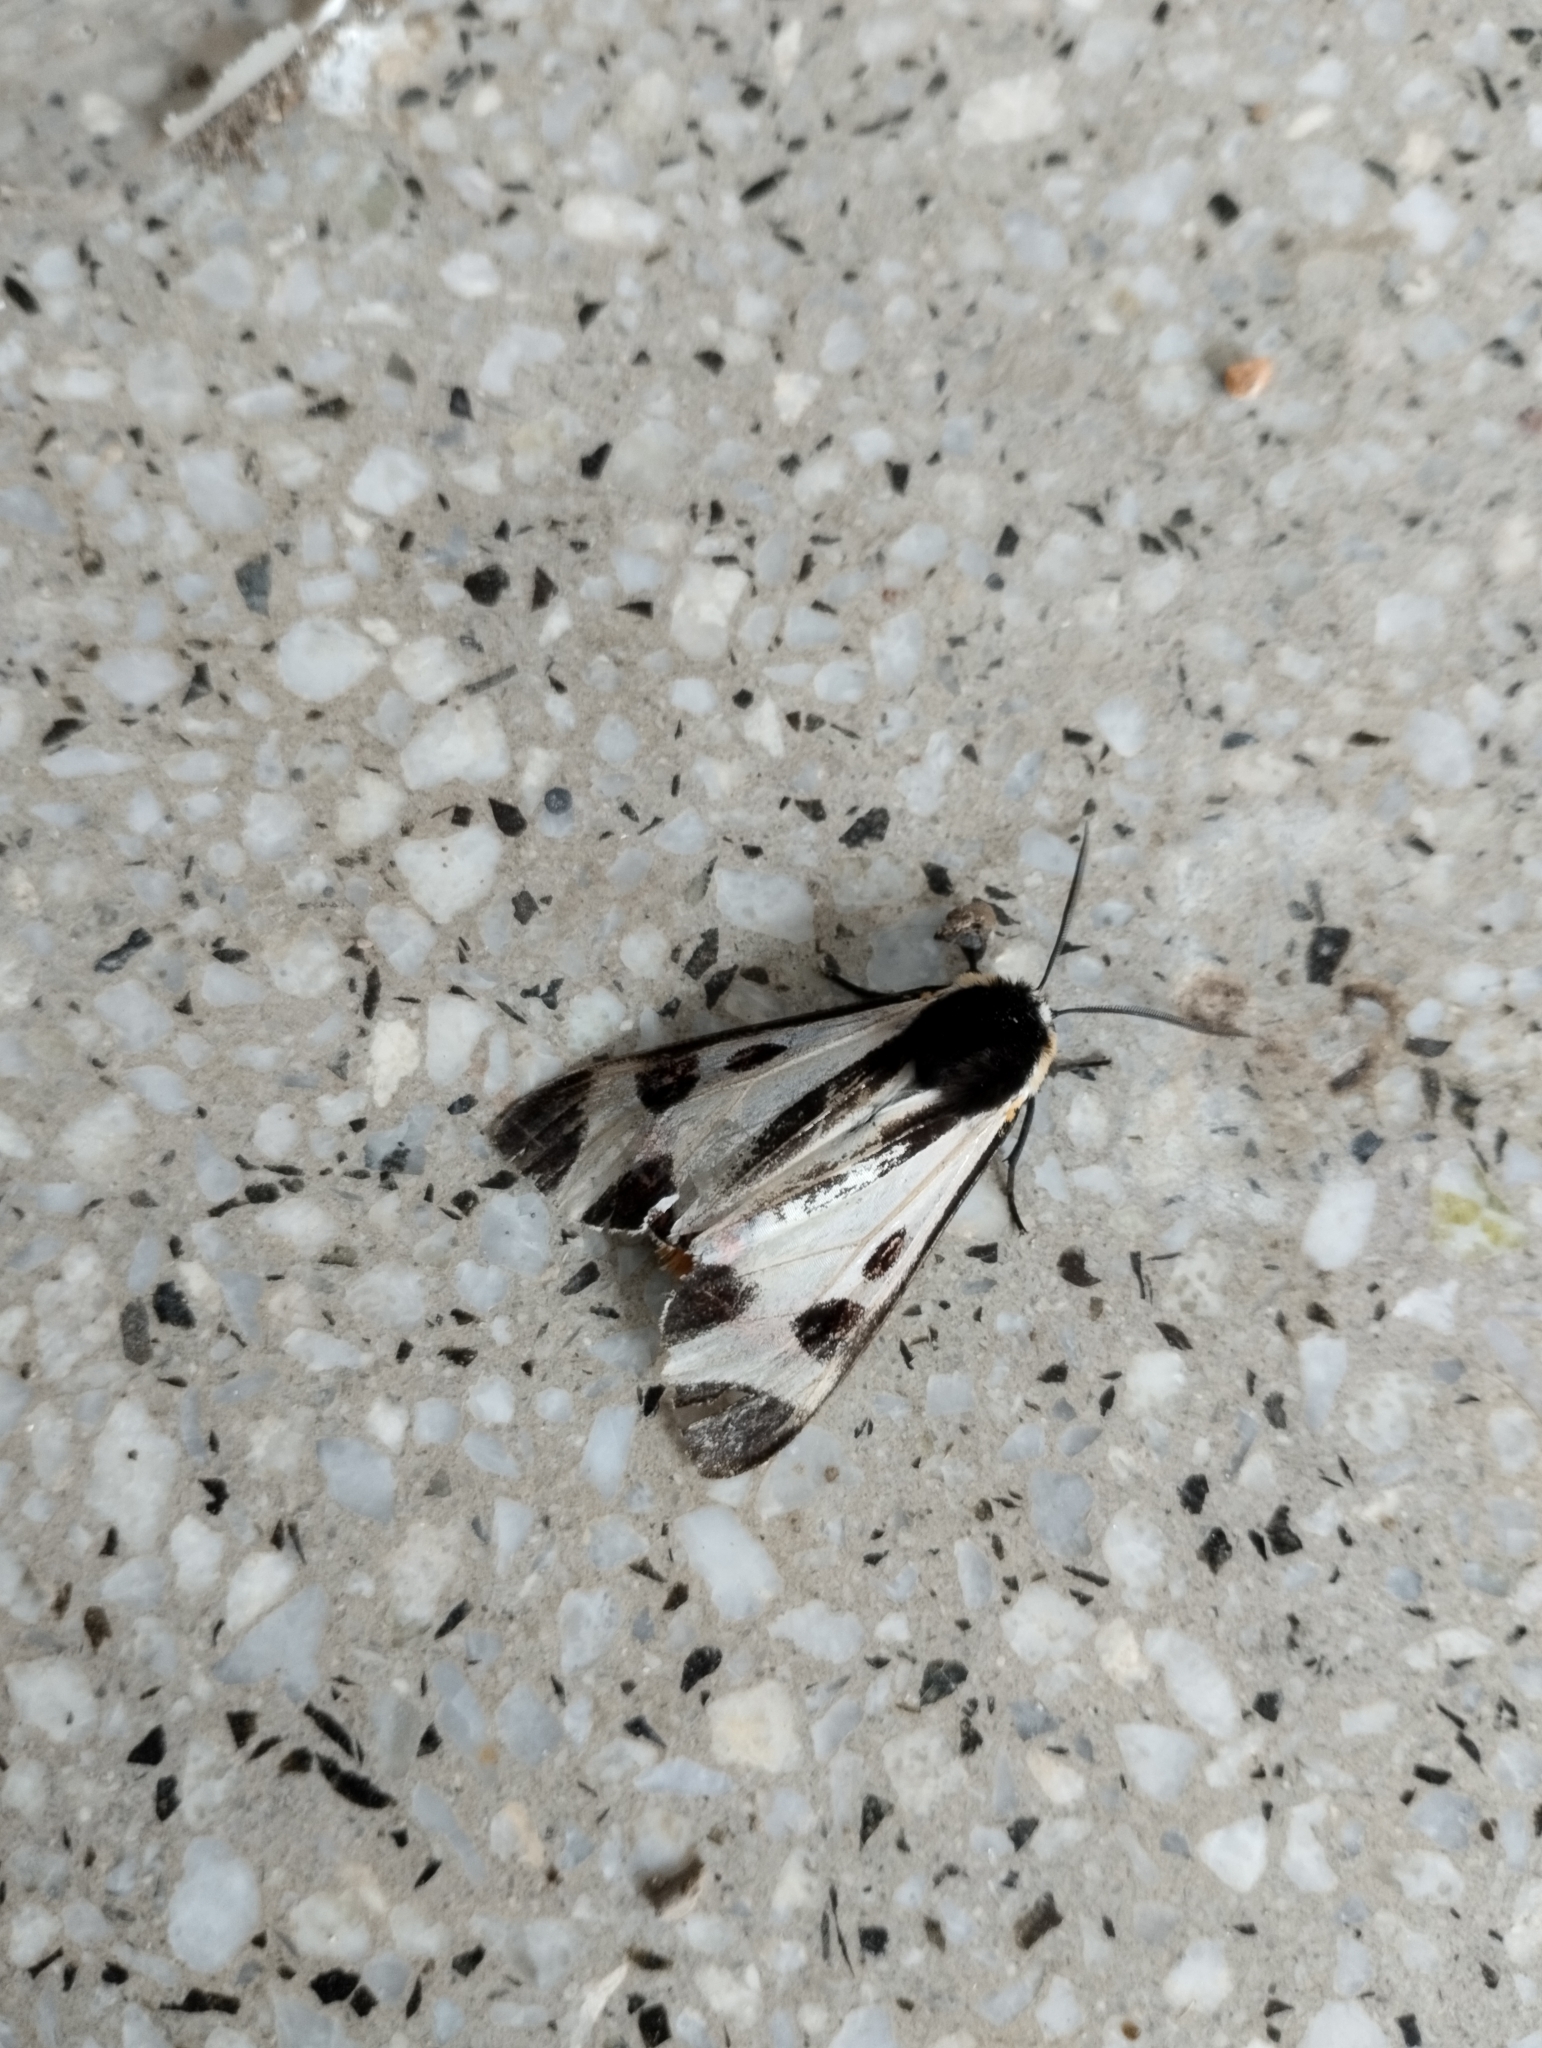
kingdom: Animalia
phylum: Arthropoda
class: Insecta
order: Lepidoptera
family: Erebidae
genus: Dysschema
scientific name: Dysschema centenaria
